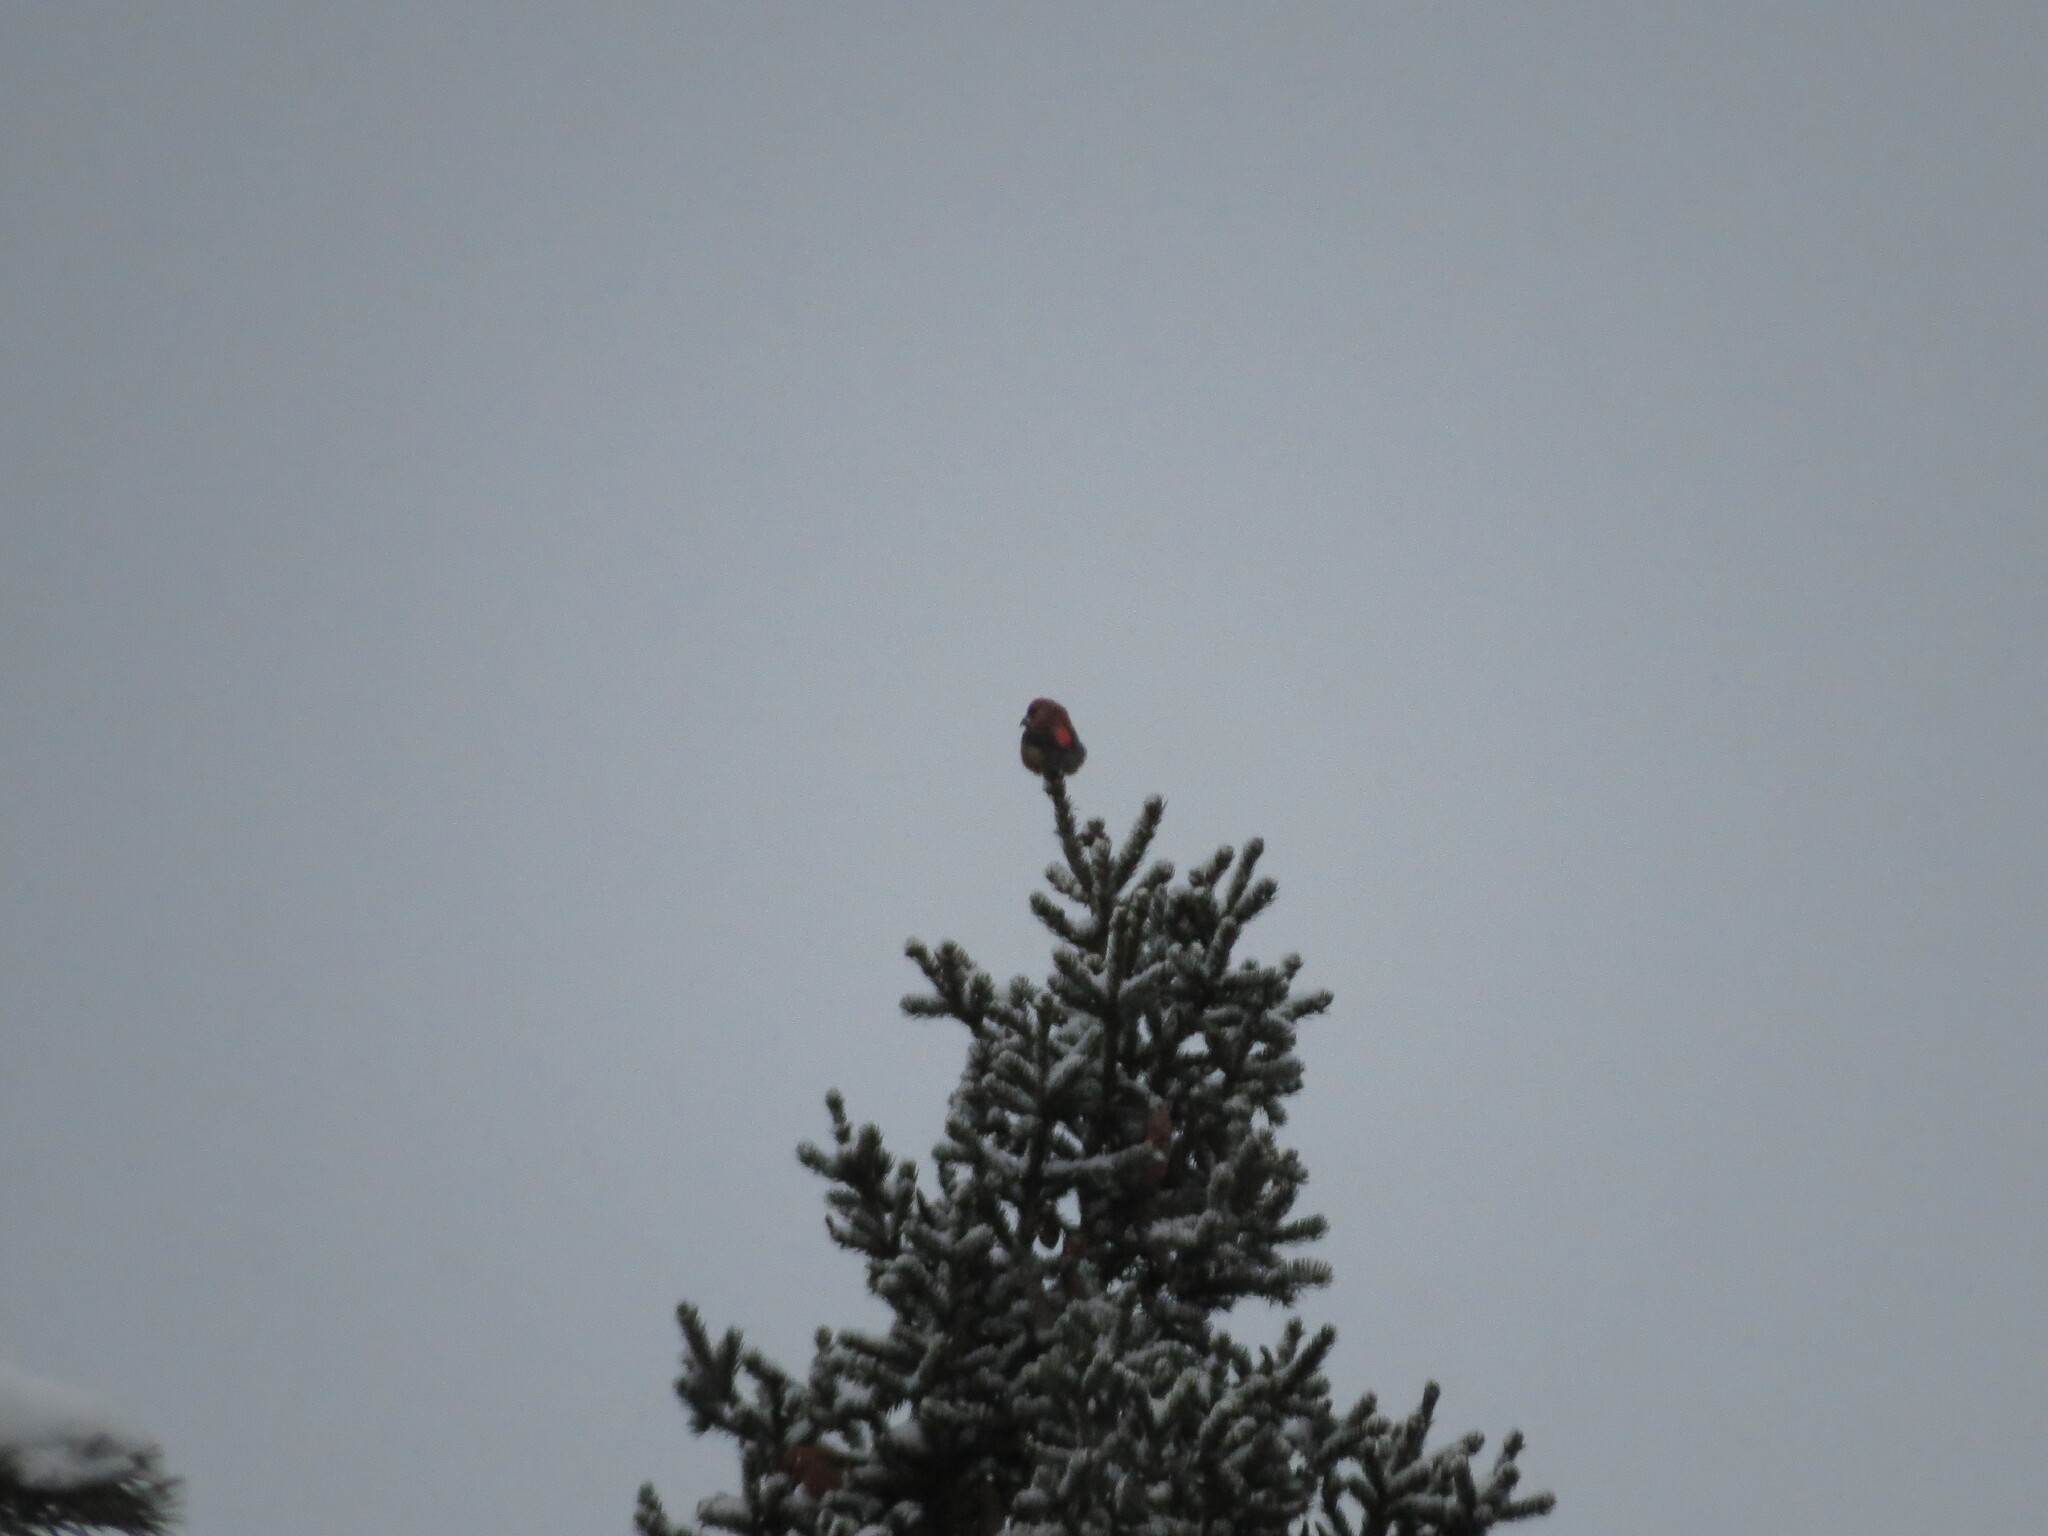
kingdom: Animalia
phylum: Chordata
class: Aves
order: Passeriformes
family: Fringillidae
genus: Loxia
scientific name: Loxia curvirostra
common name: Red crossbill
